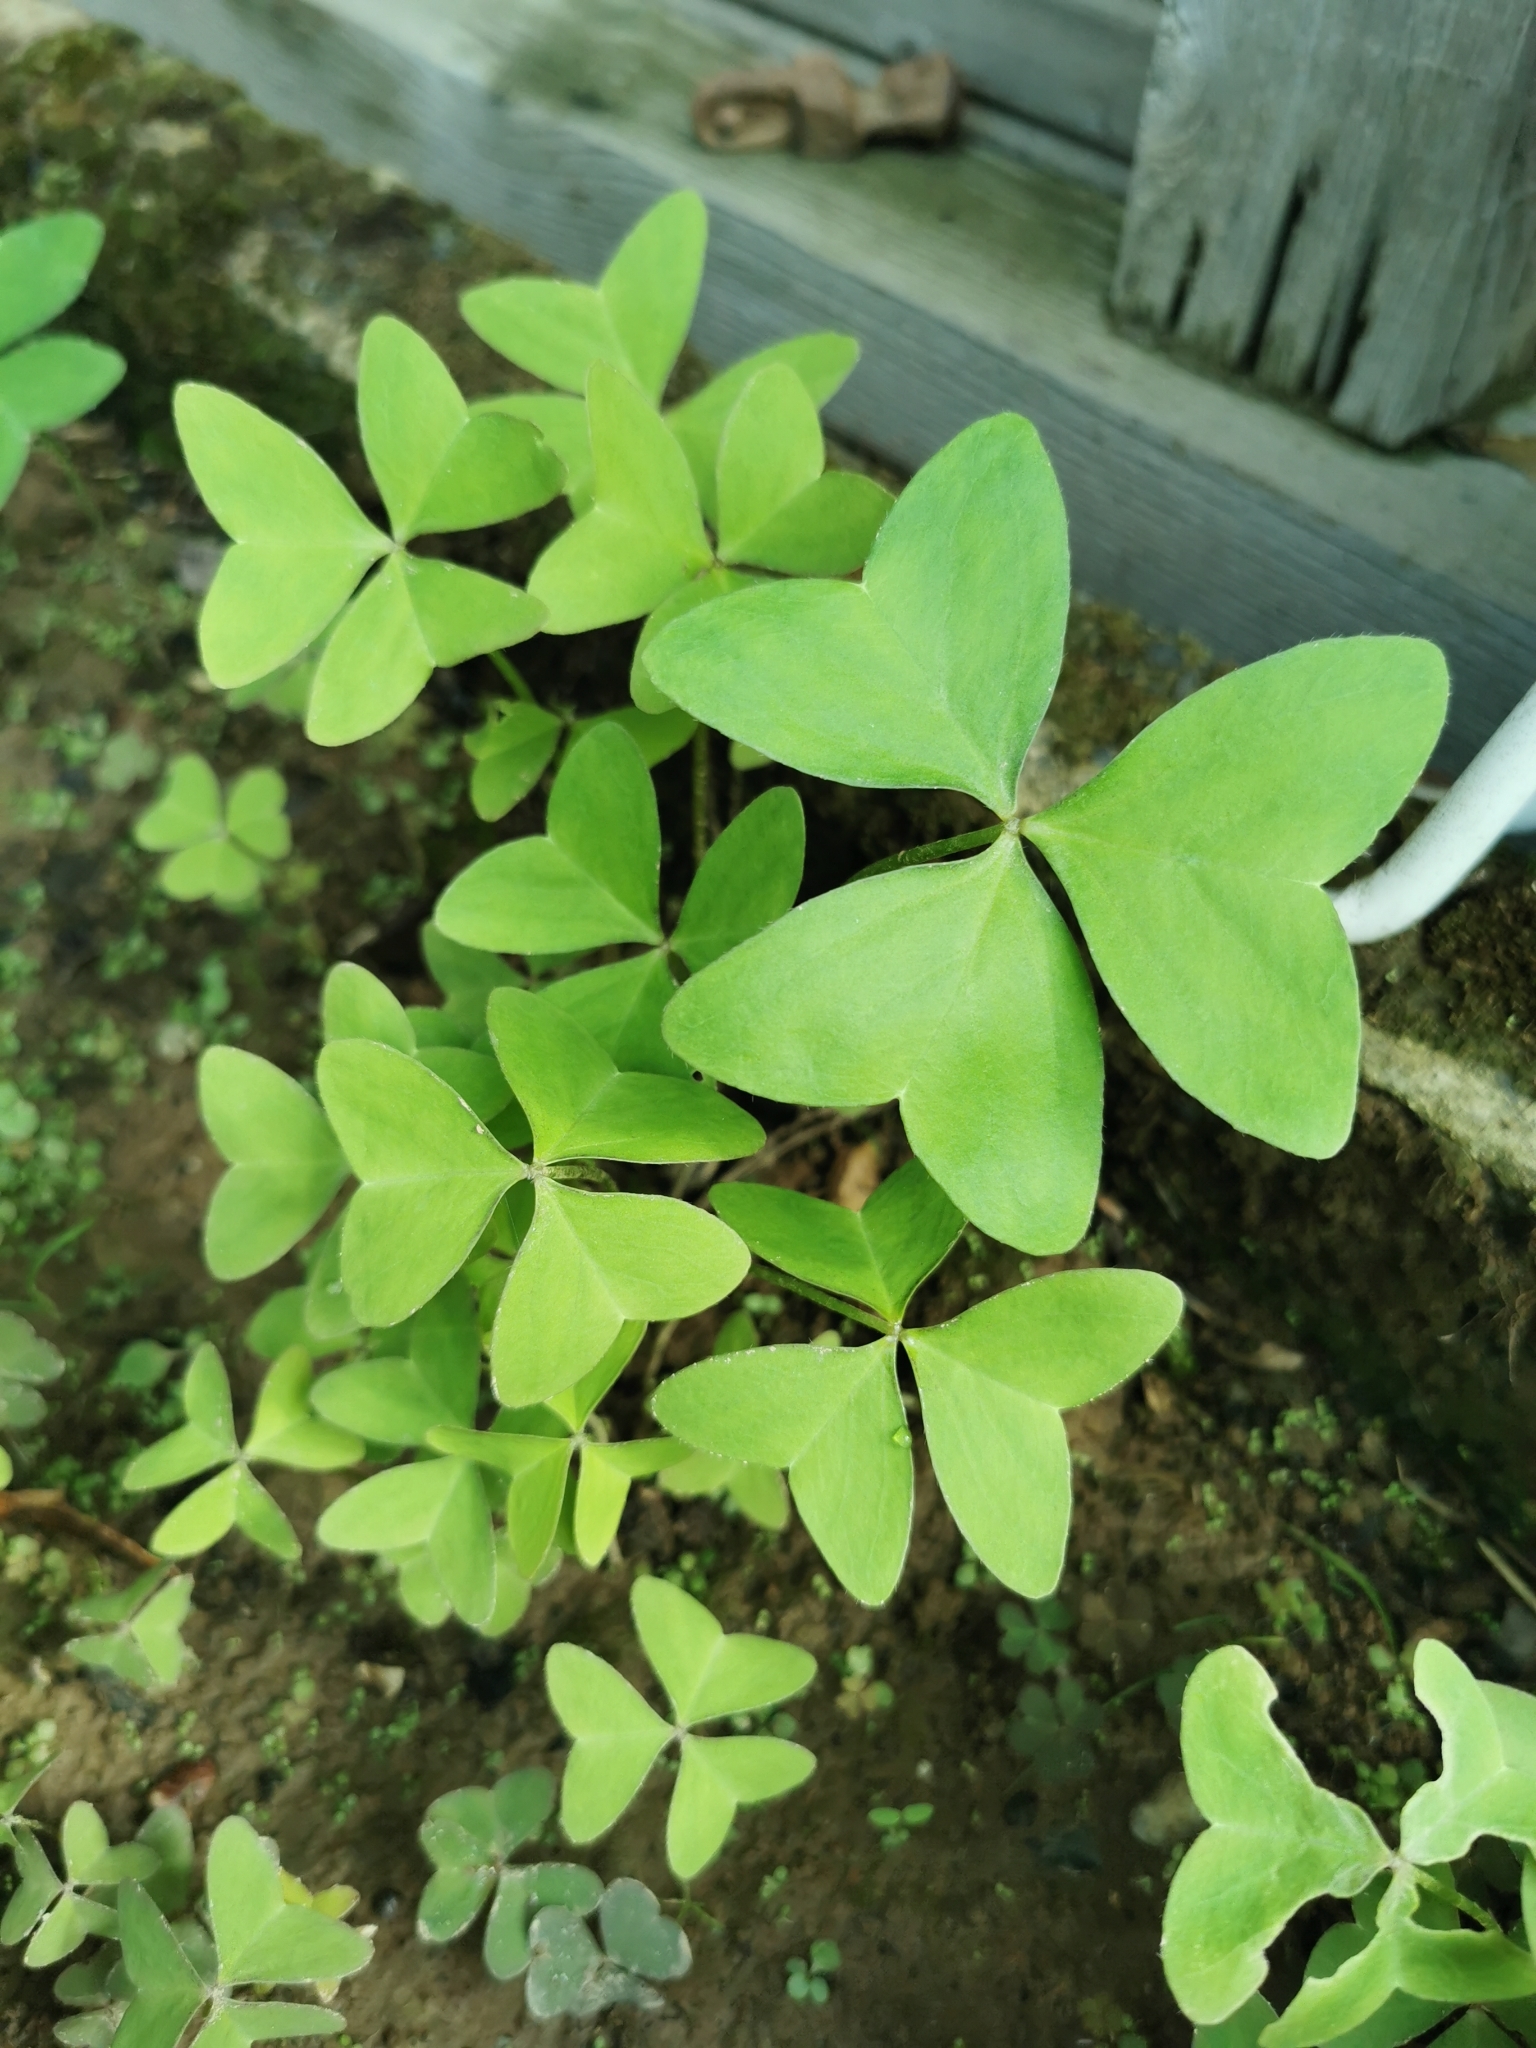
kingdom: Plantae
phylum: Tracheophyta
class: Magnoliopsida
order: Oxalidales
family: Oxalidaceae
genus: Oxalis
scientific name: Oxalis latifolia
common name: Garden pink-sorrel
